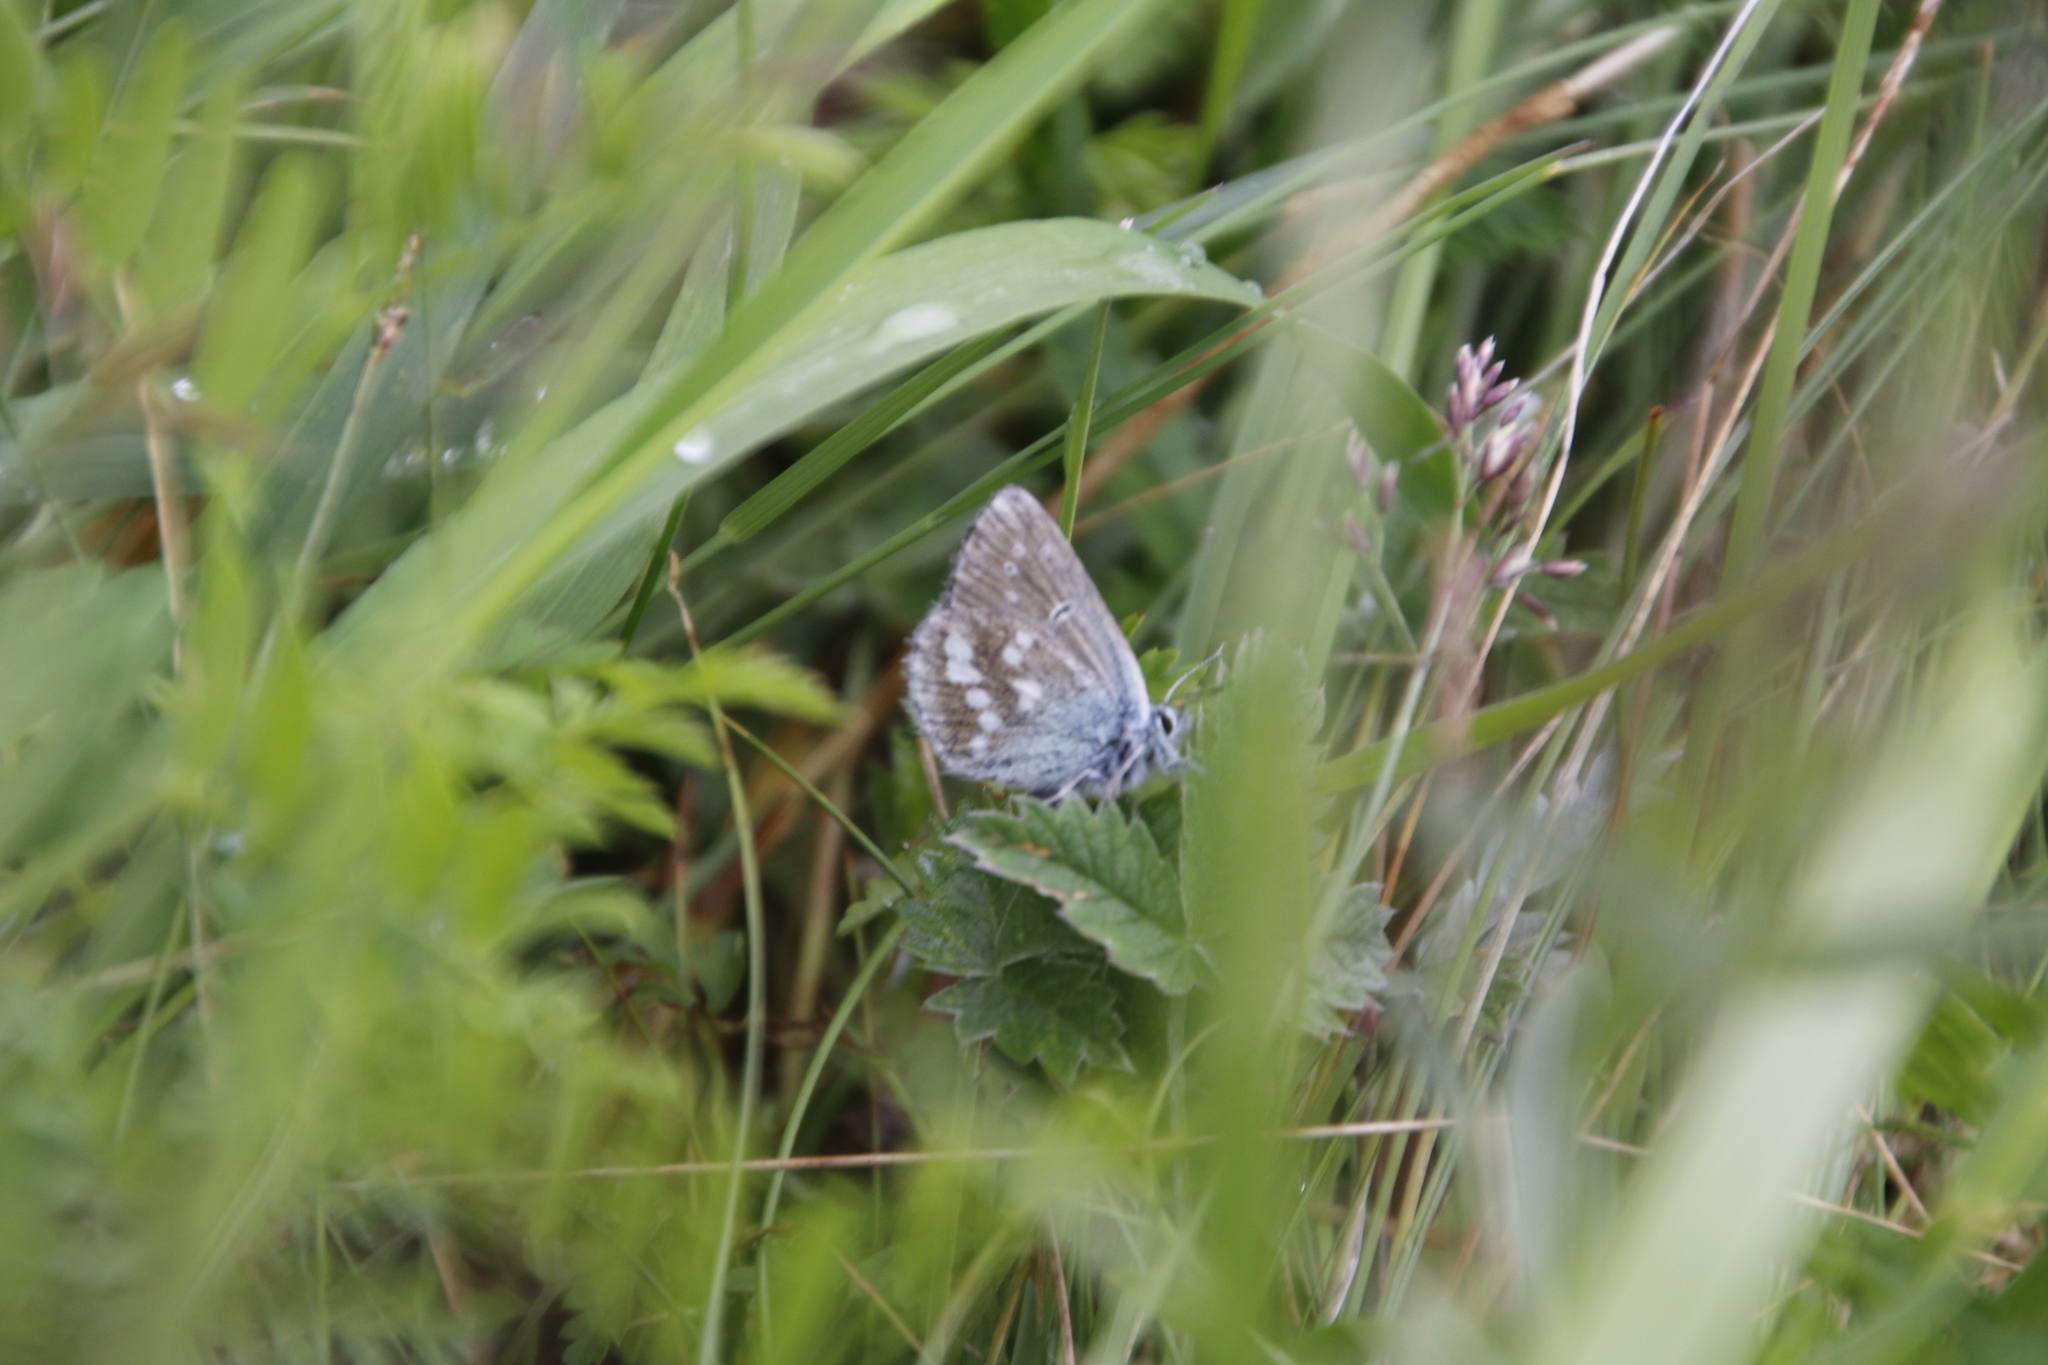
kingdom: Animalia
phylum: Arthropoda
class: Insecta
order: Lepidoptera
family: Lycaenidae
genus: Albulina
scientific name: Albulina orbitulus
